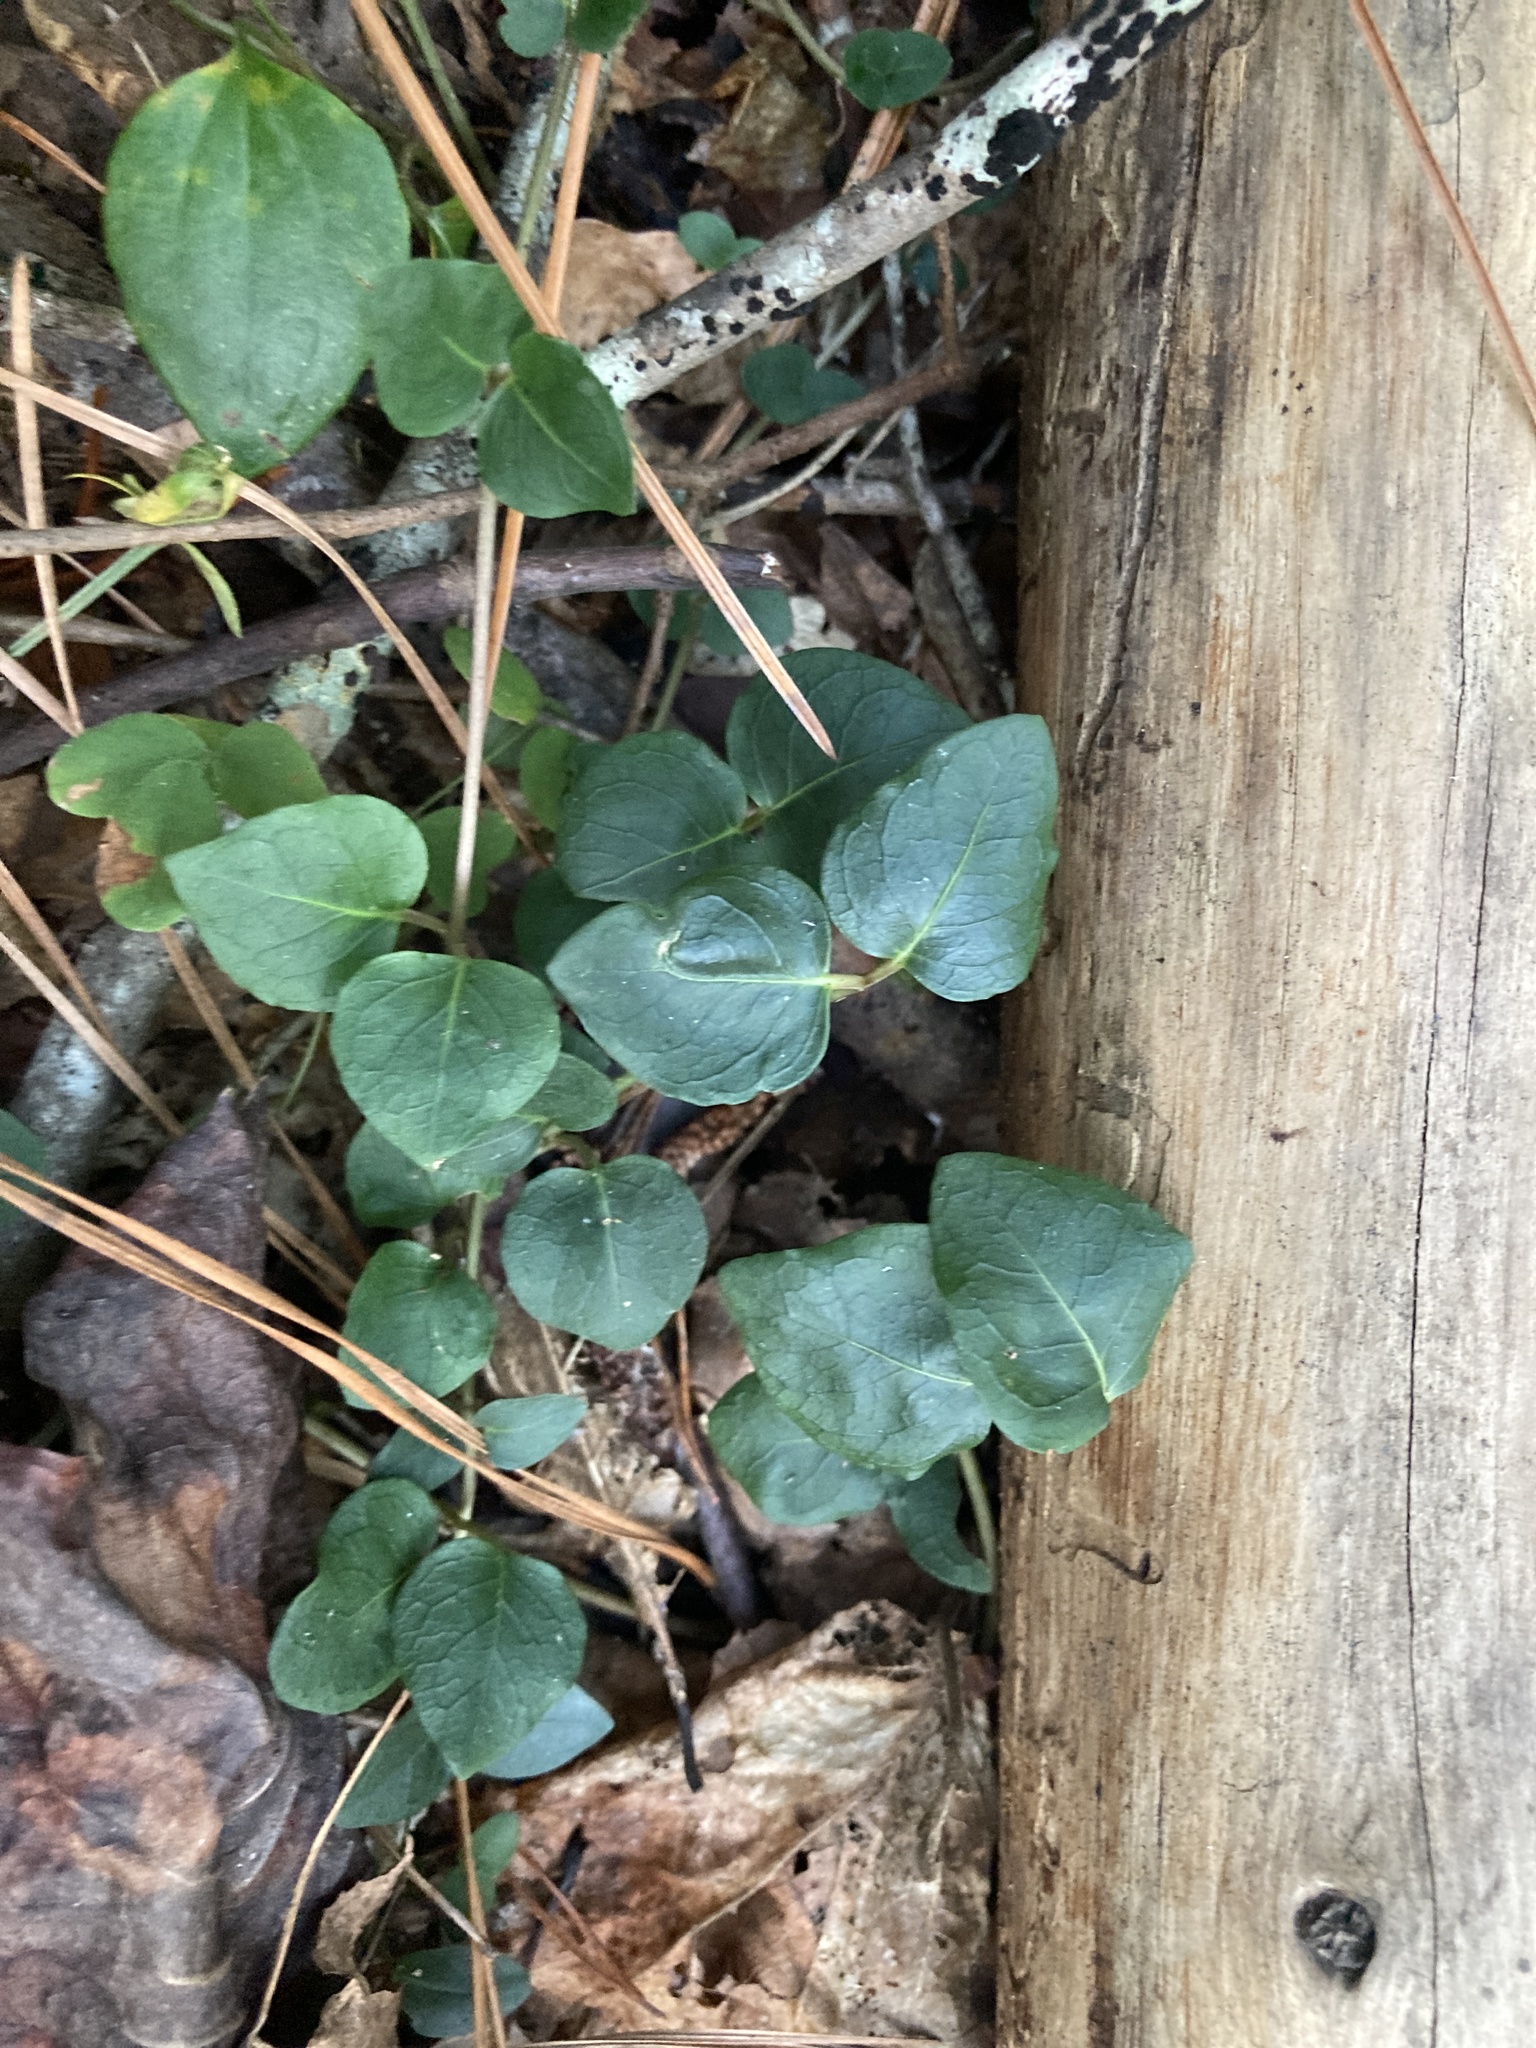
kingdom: Plantae
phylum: Tracheophyta
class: Magnoliopsida
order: Gentianales
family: Rubiaceae
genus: Mitchella
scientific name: Mitchella repens
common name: Partridge-berry
